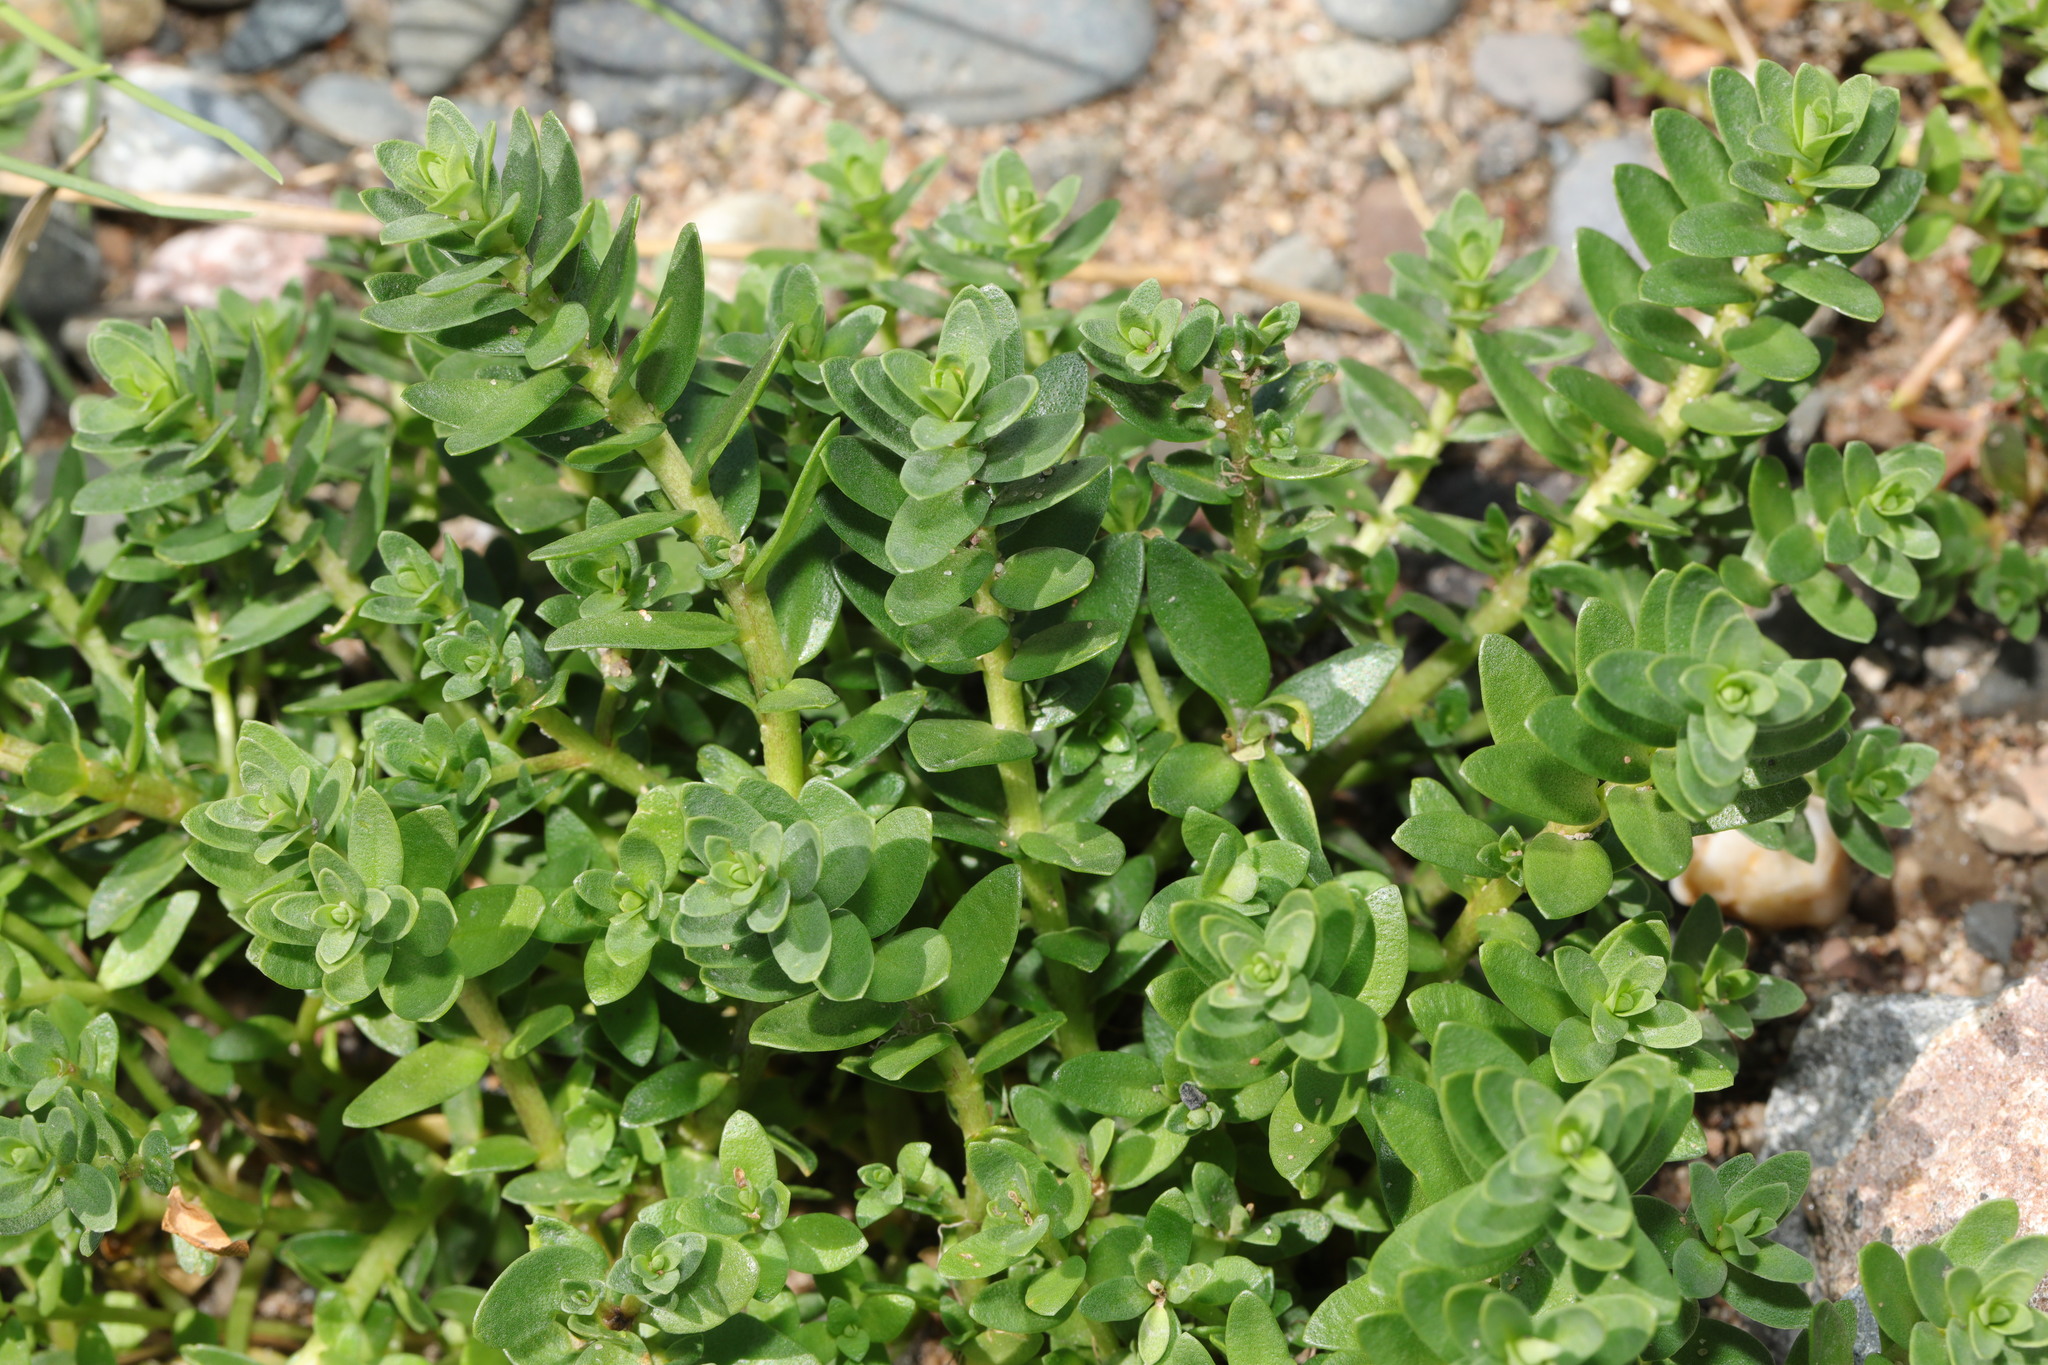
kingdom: Plantae
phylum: Tracheophyta
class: Magnoliopsida
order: Ericales
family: Primulaceae
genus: Lysimachia
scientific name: Lysimachia maritima
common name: Sea milkwort
